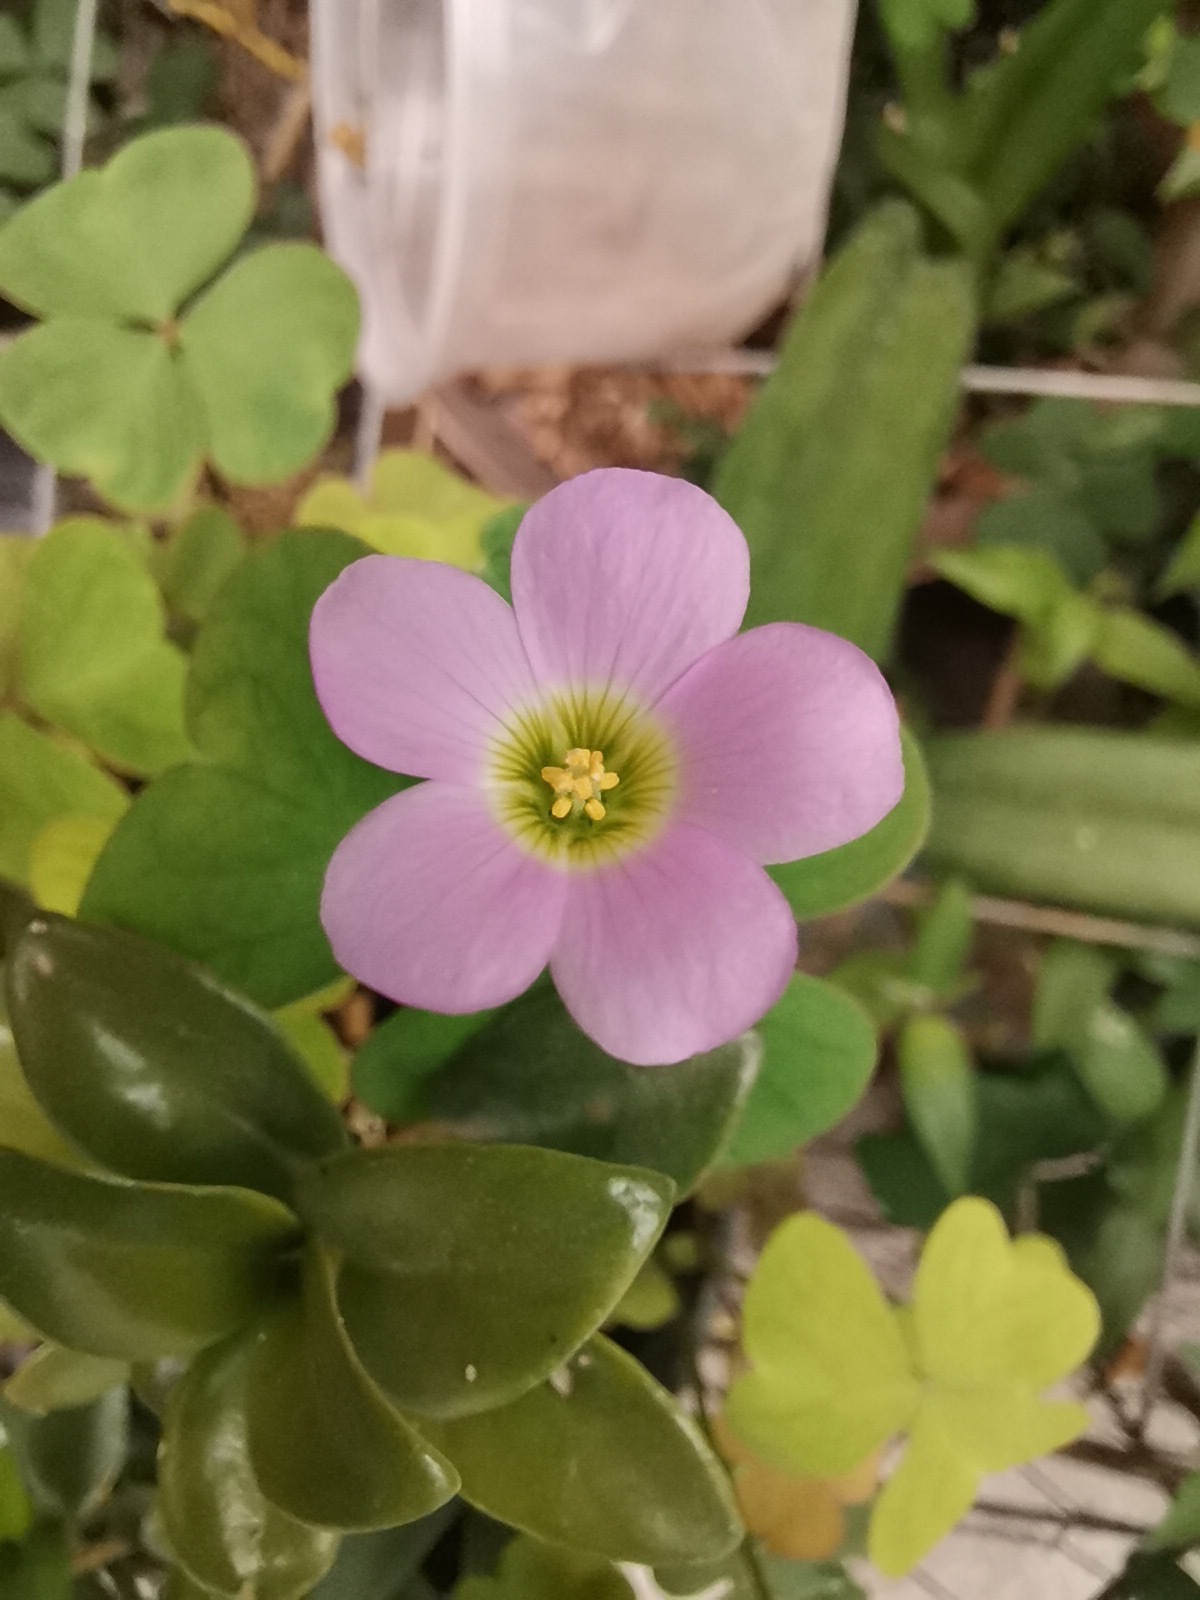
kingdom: Plantae
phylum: Tracheophyta
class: Magnoliopsida
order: Oxalidales
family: Oxalidaceae
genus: Oxalis
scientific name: Oxalis latifolia
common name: Garden pink-sorrel
